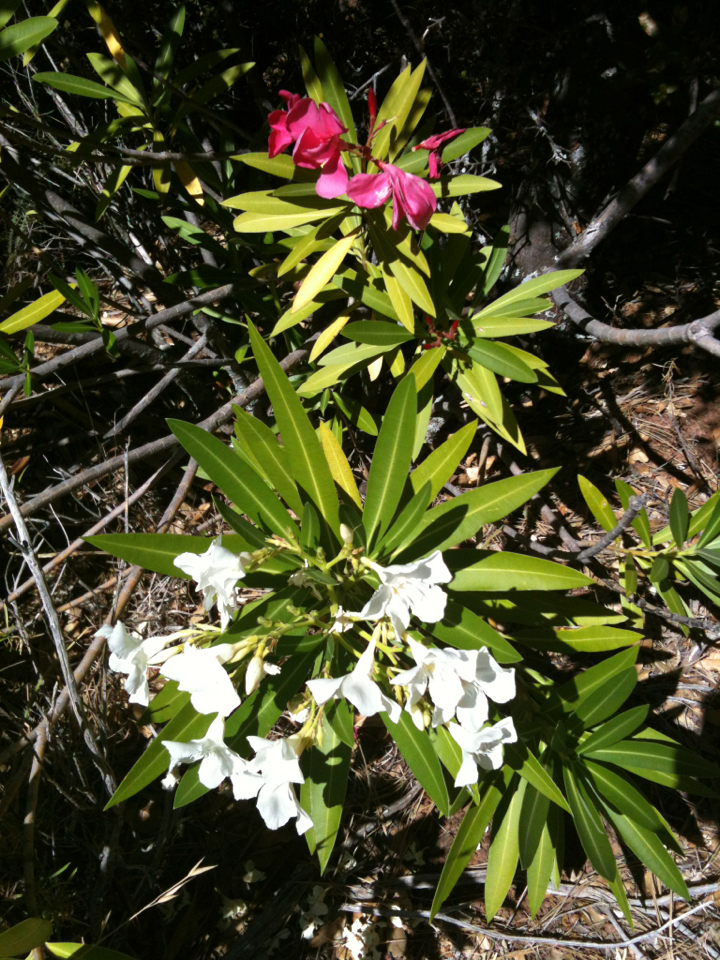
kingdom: Plantae
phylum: Tracheophyta
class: Magnoliopsida
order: Gentianales
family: Apocynaceae
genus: Nerium
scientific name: Nerium oleander
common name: Oleander
